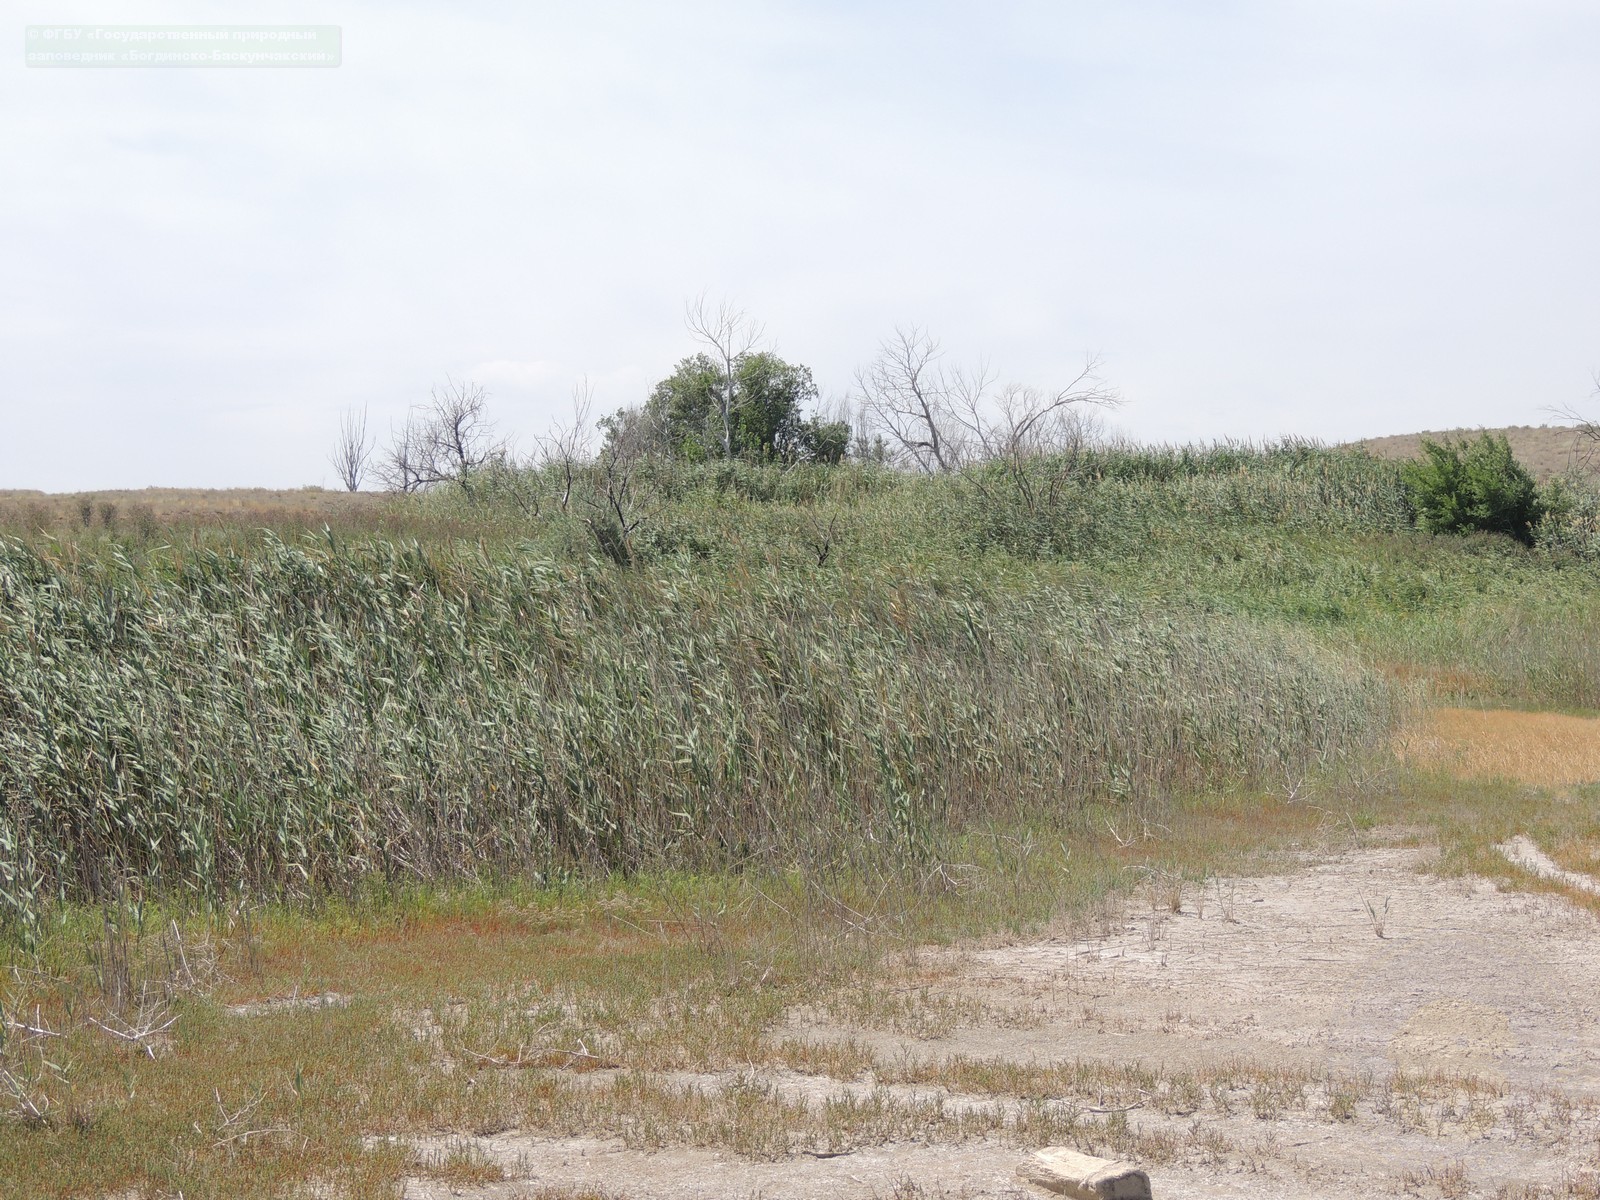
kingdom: Plantae
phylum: Tracheophyta
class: Liliopsida
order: Poales
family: Poaceae
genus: Phragmites
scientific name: Phragmites australis
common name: Common reed
